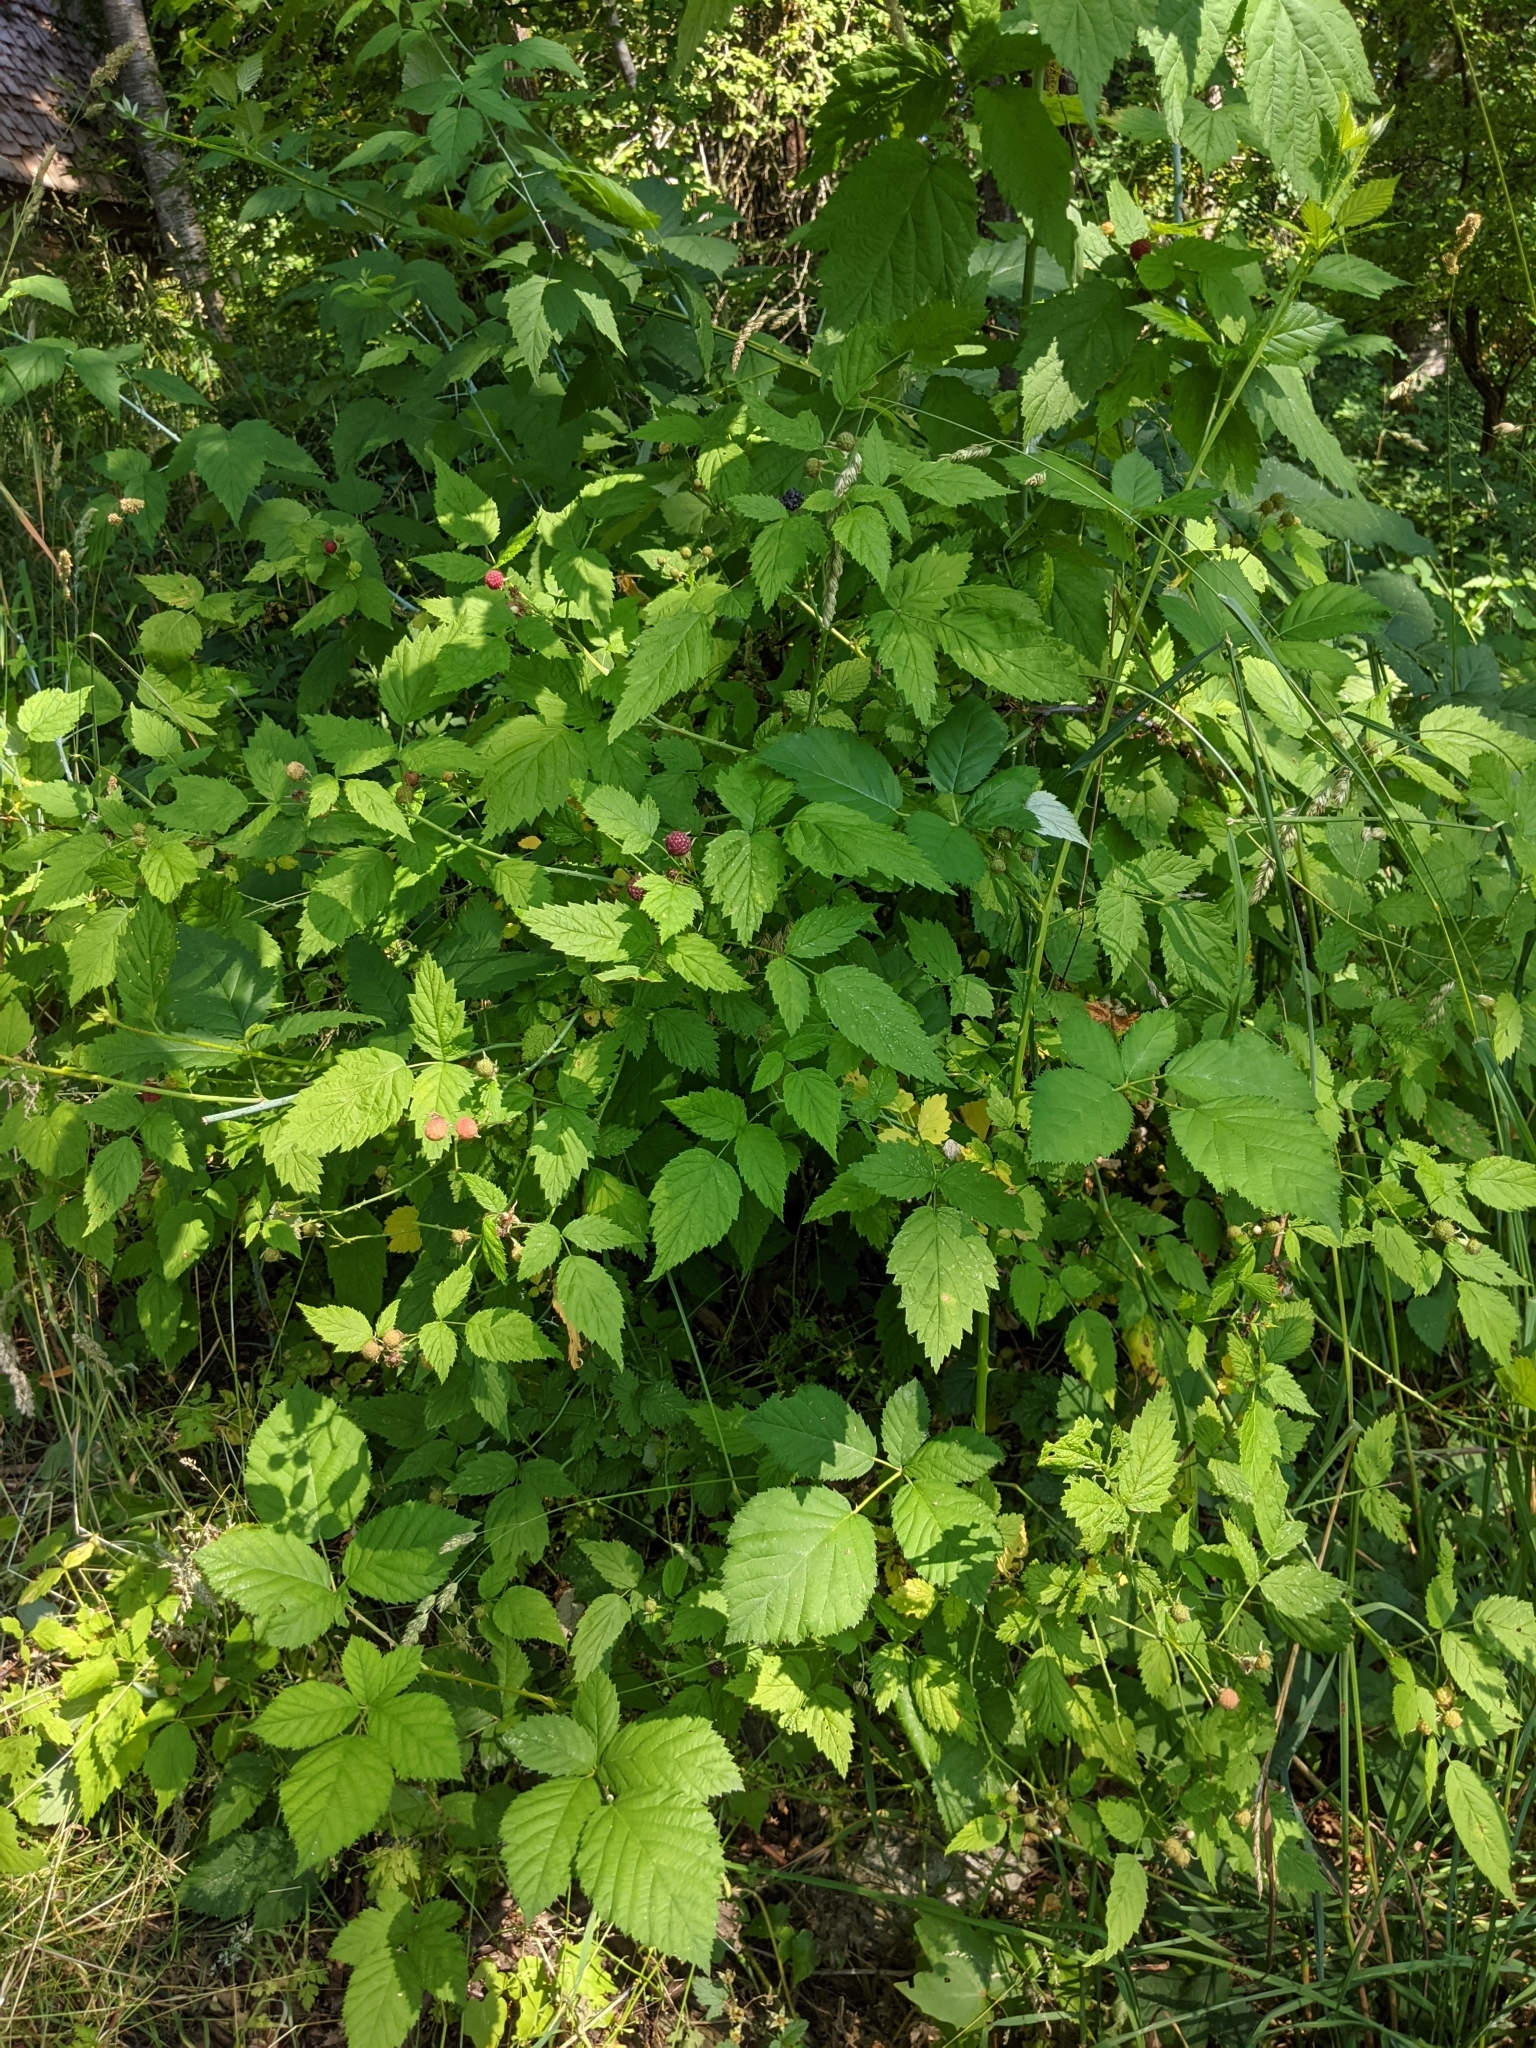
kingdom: Plantae
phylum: Tracheophyta
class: Magnoliopsida
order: Rosales
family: Rosaceae
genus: Rubus
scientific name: Rubus leucodermis
